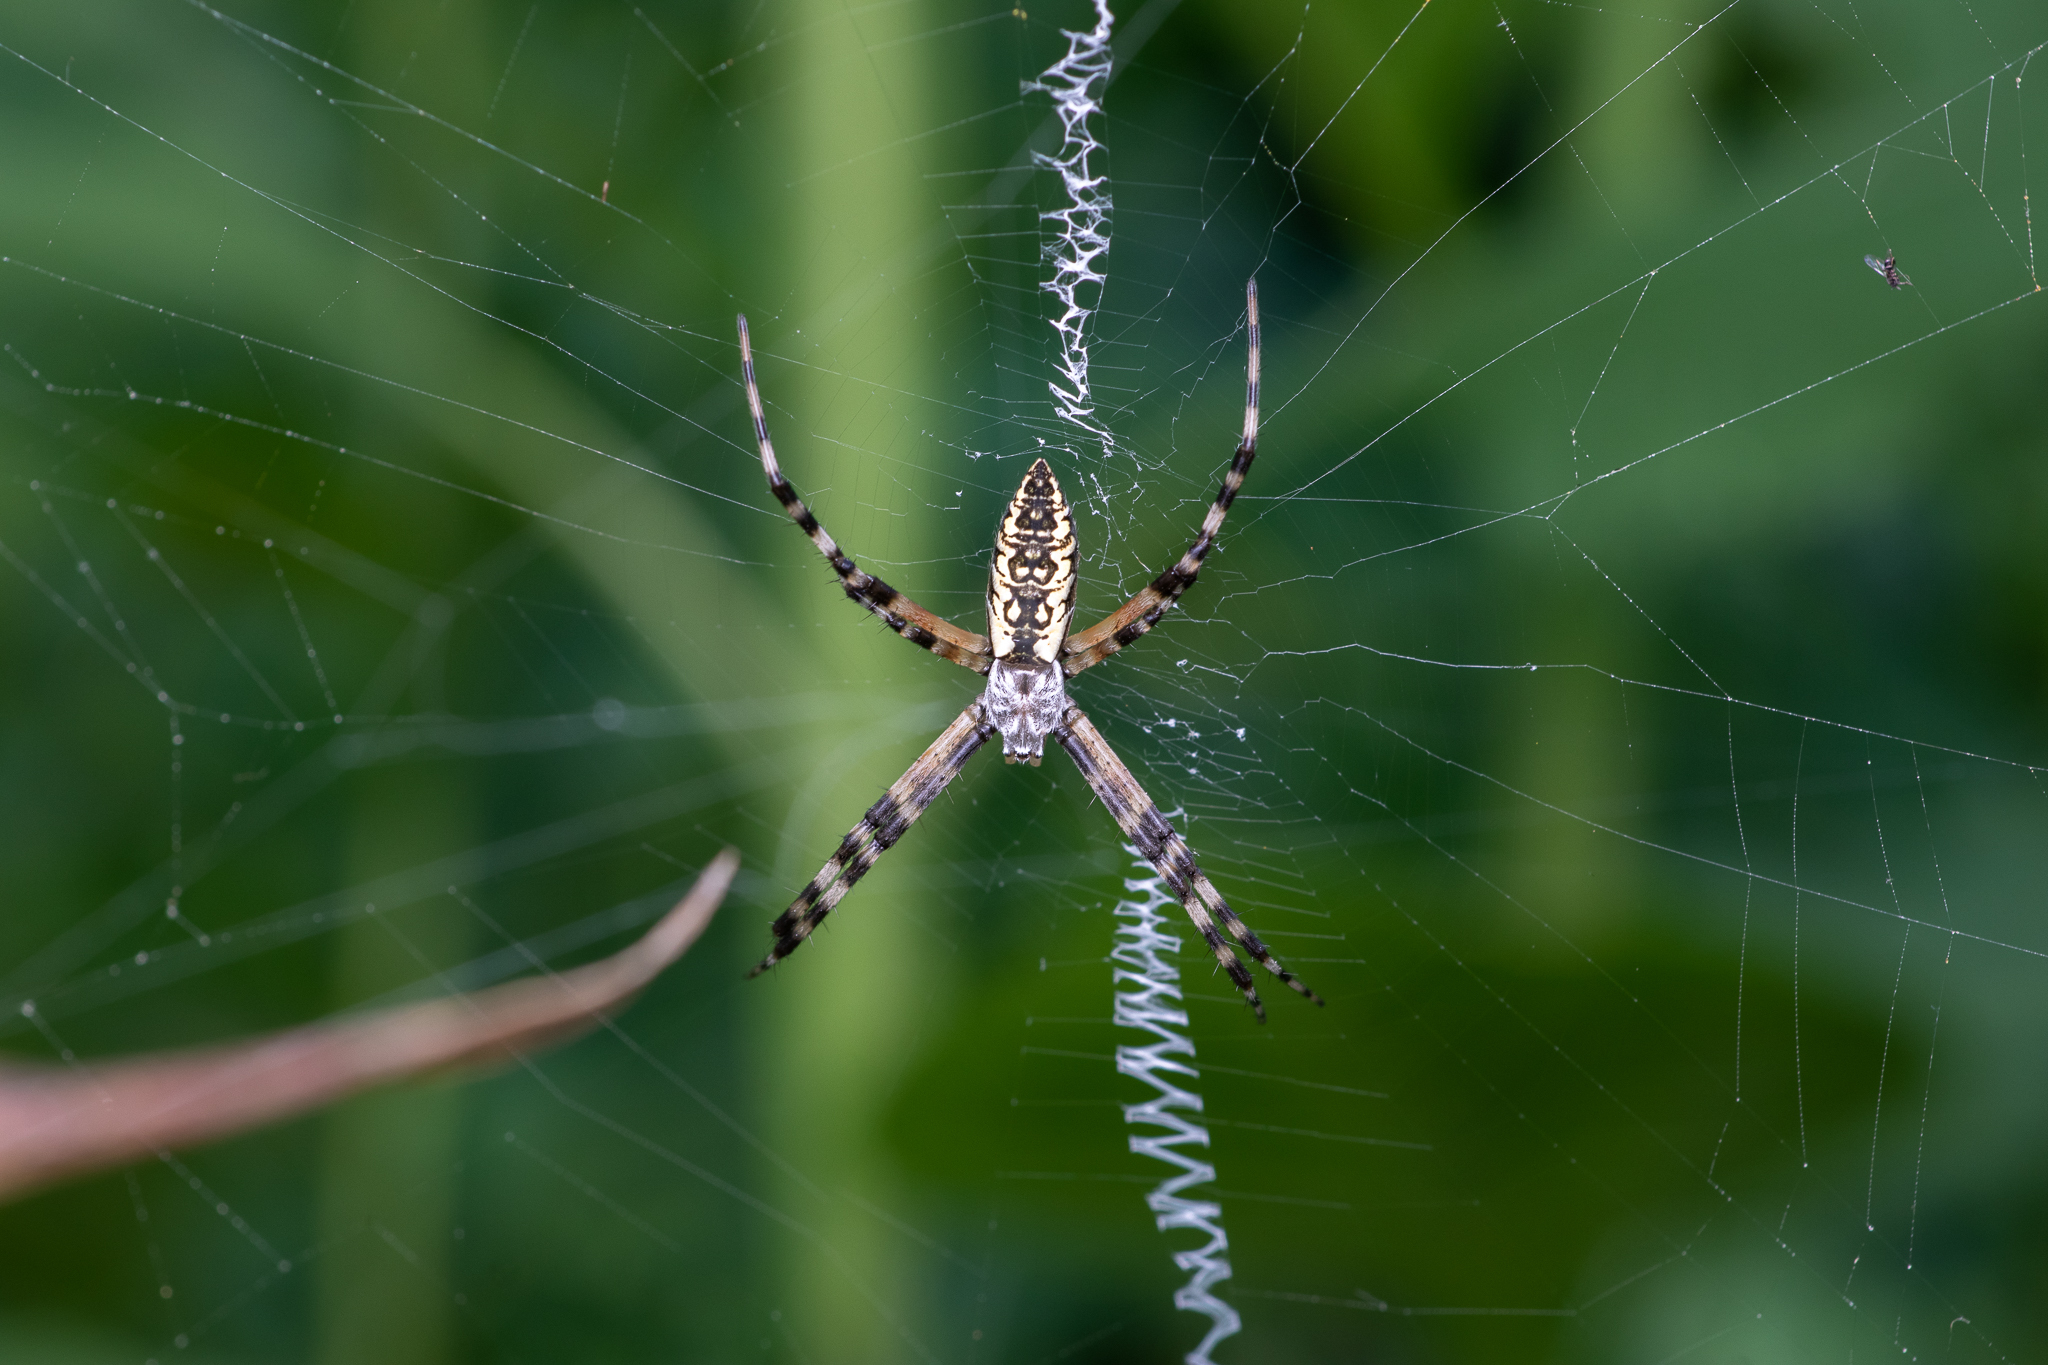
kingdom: Animalia
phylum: Arthropoda
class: Arachnida
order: Araneae
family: Araneidae
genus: Argiope
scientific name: Argiope aurantia
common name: Orb weavers
